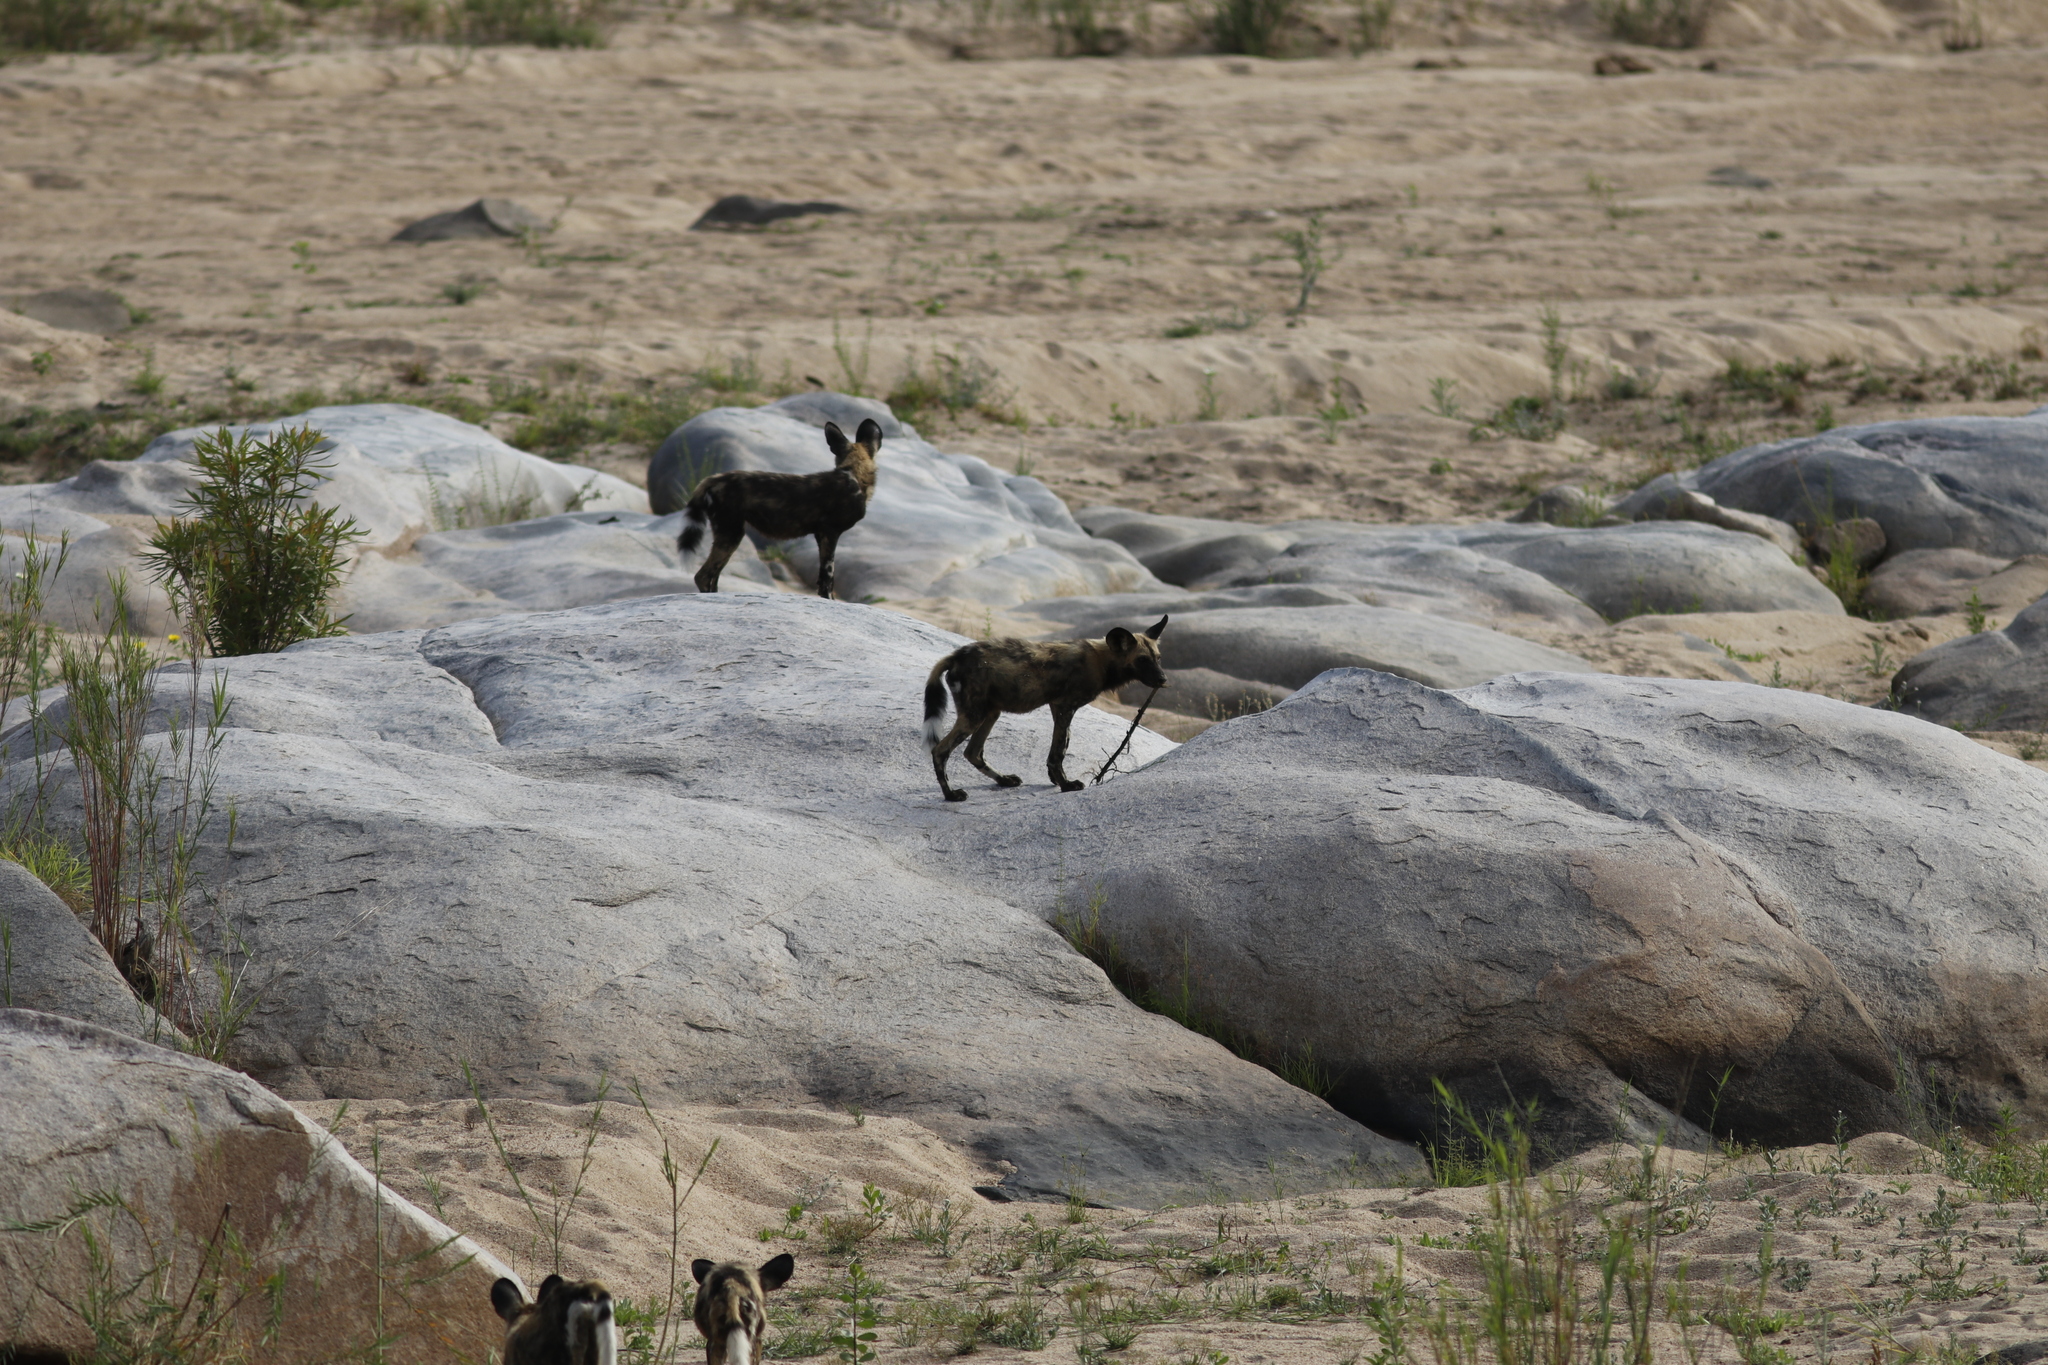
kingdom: Animalia
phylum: Chordata
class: Mammalia
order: Carnivora
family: Canidae
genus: Lycaon
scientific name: Lycaon pictus
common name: African wild dog
